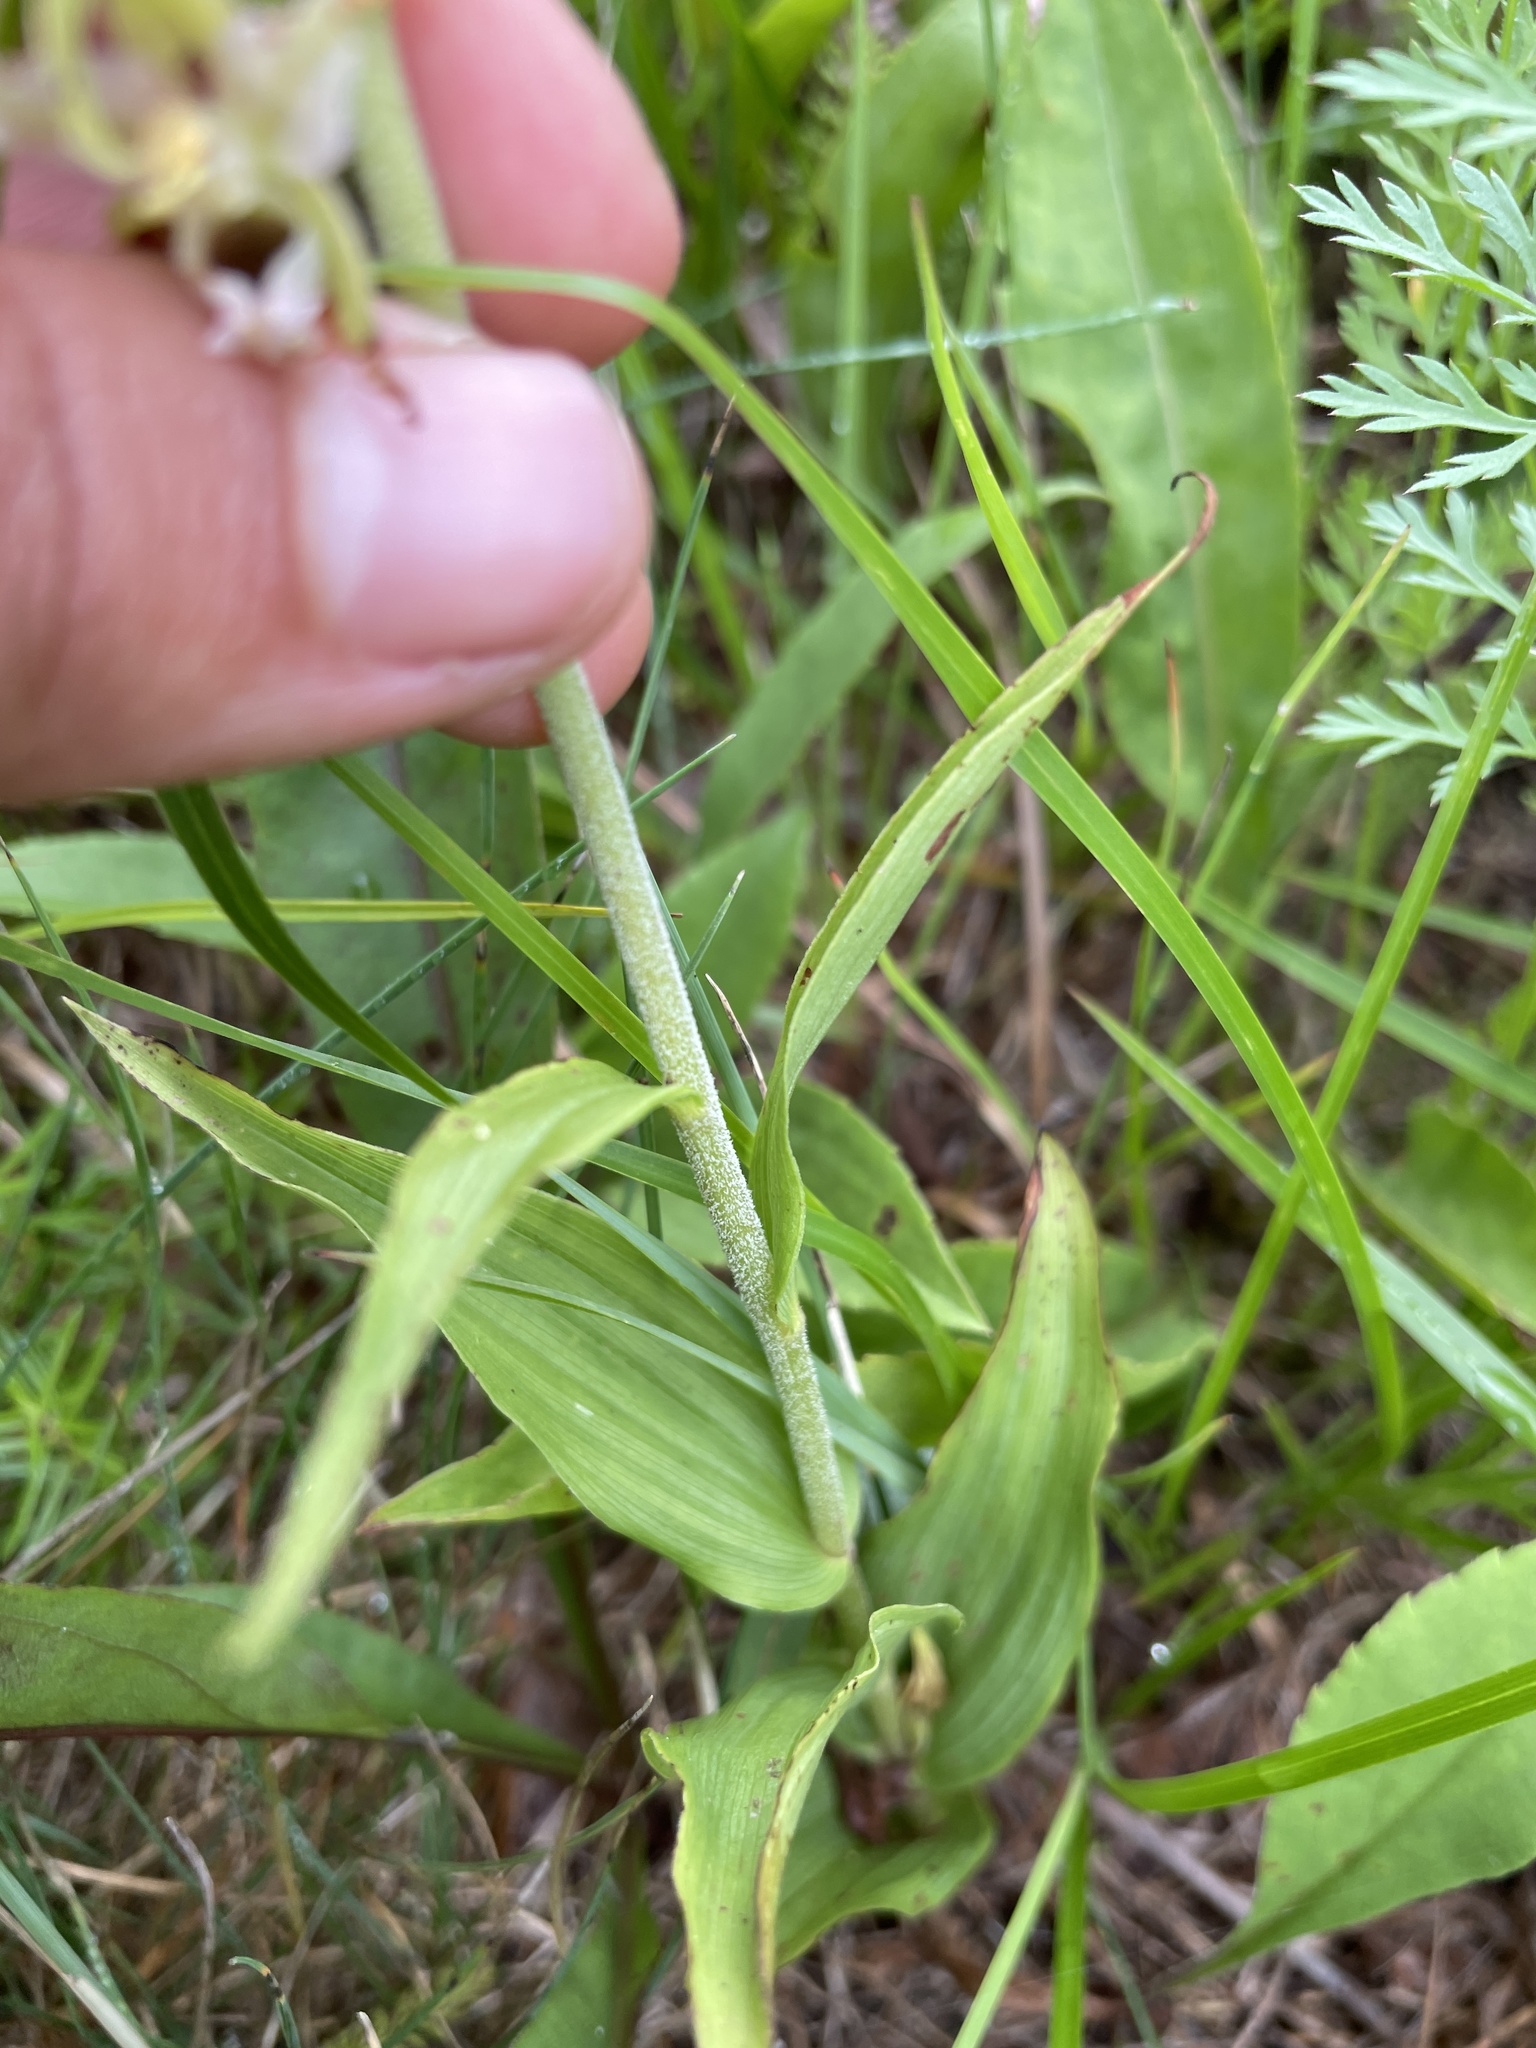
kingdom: Plantae
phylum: Tracheophyta
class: Liliopsida
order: Asparagales
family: Orchidaceae
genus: Epipactis
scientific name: Epipactis helleborine
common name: Broad-leaved helleborine
